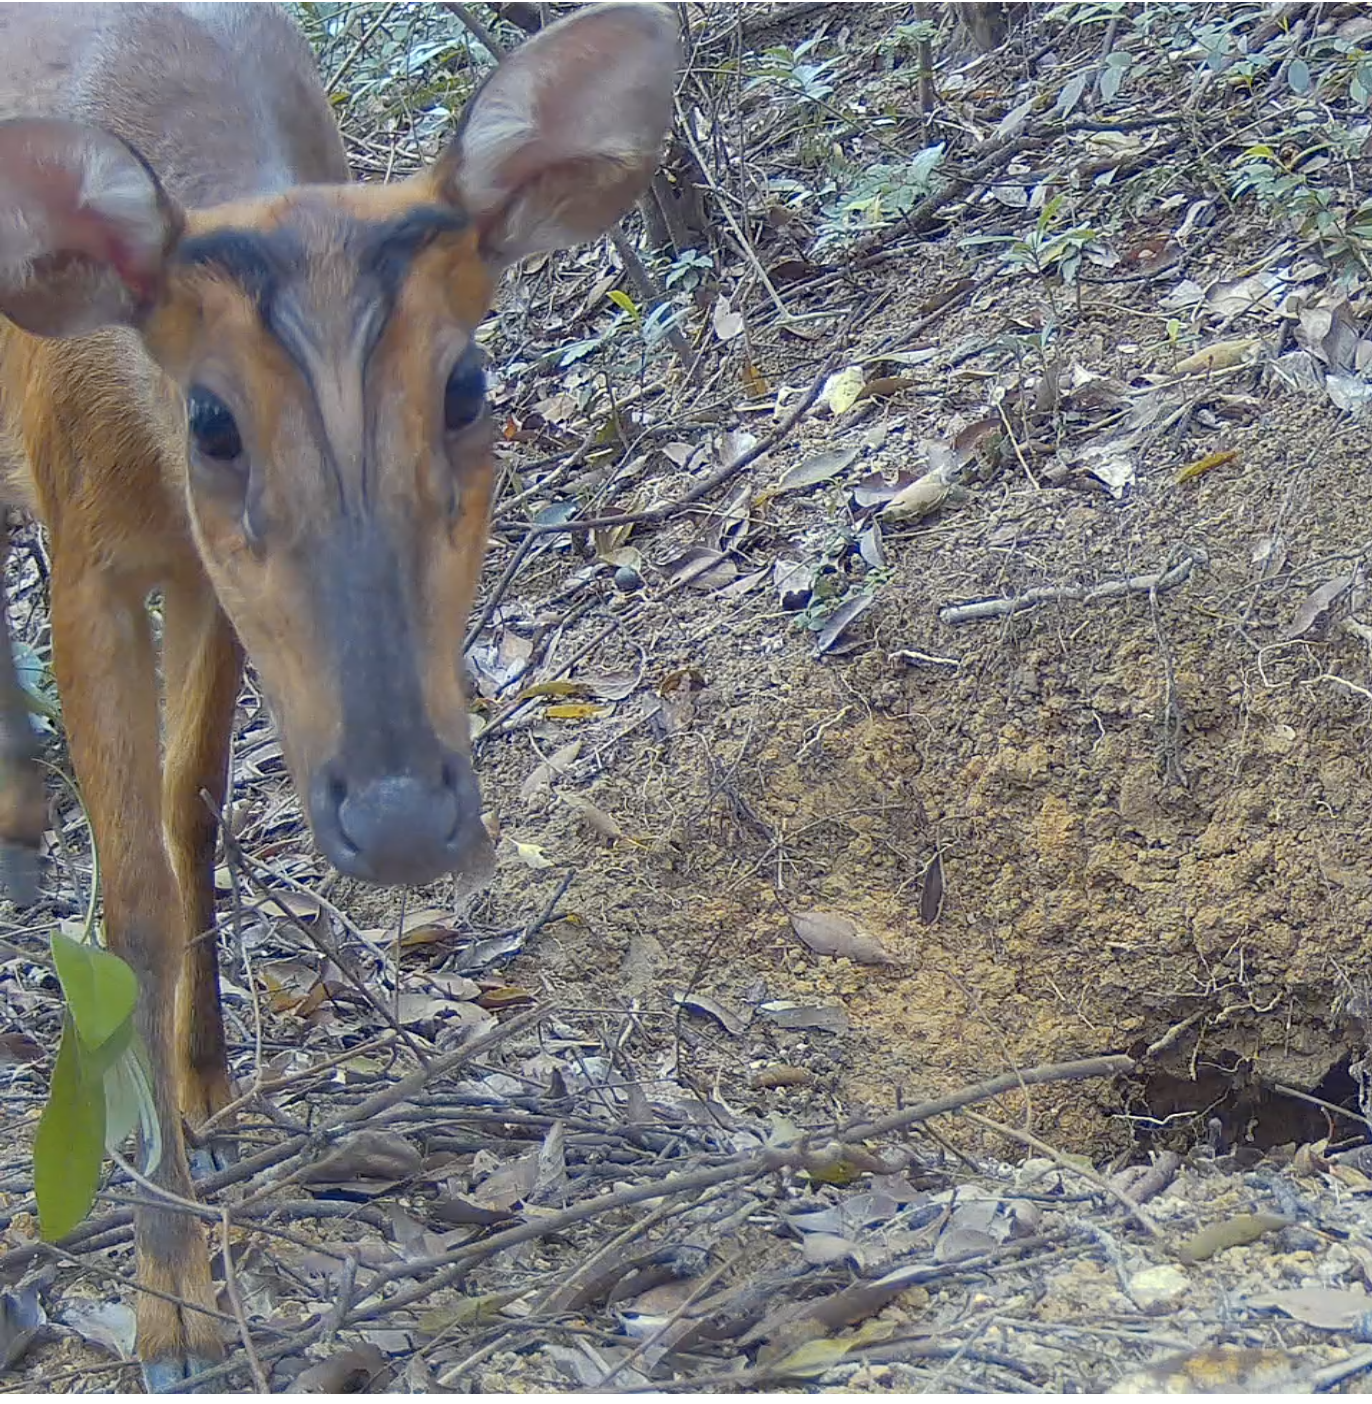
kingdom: Animalia
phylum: Chordata
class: Mammalia
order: Artiodactyla
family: Cervidae
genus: Muntiacus
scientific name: Muntiacus muntjak
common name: Indian muntjac
